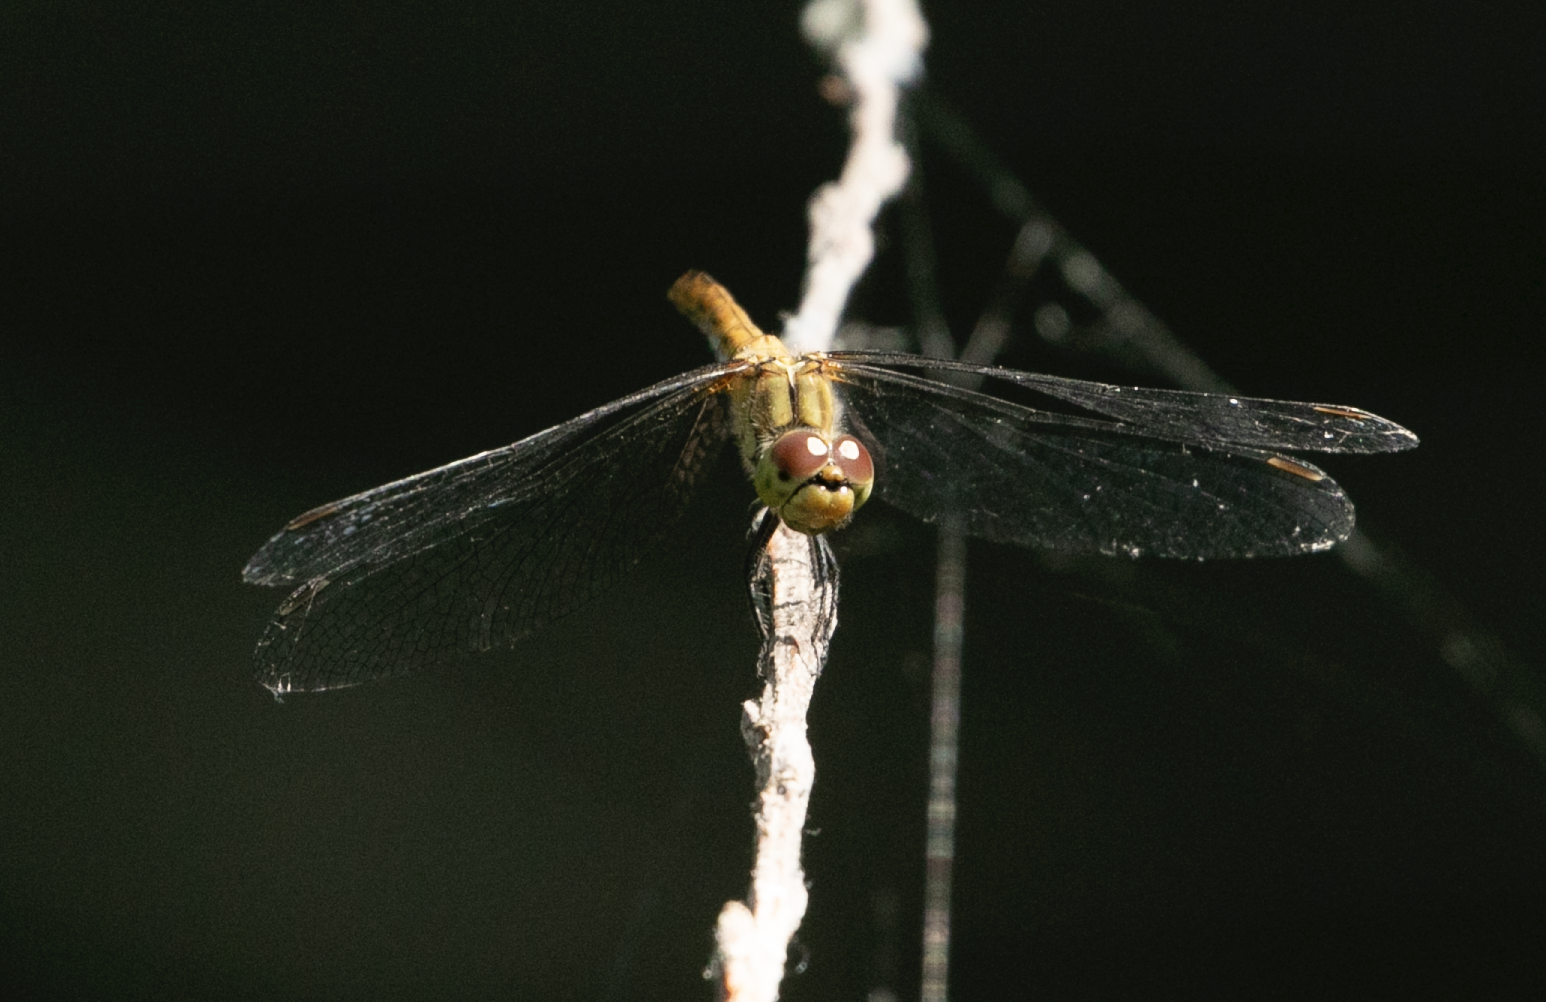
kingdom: Animalia
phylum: Arthropoda
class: Insecta
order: Odonata
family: Libellulidae
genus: Sympetrum
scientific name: Sympetrum sanguineum
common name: Ruddy darter
